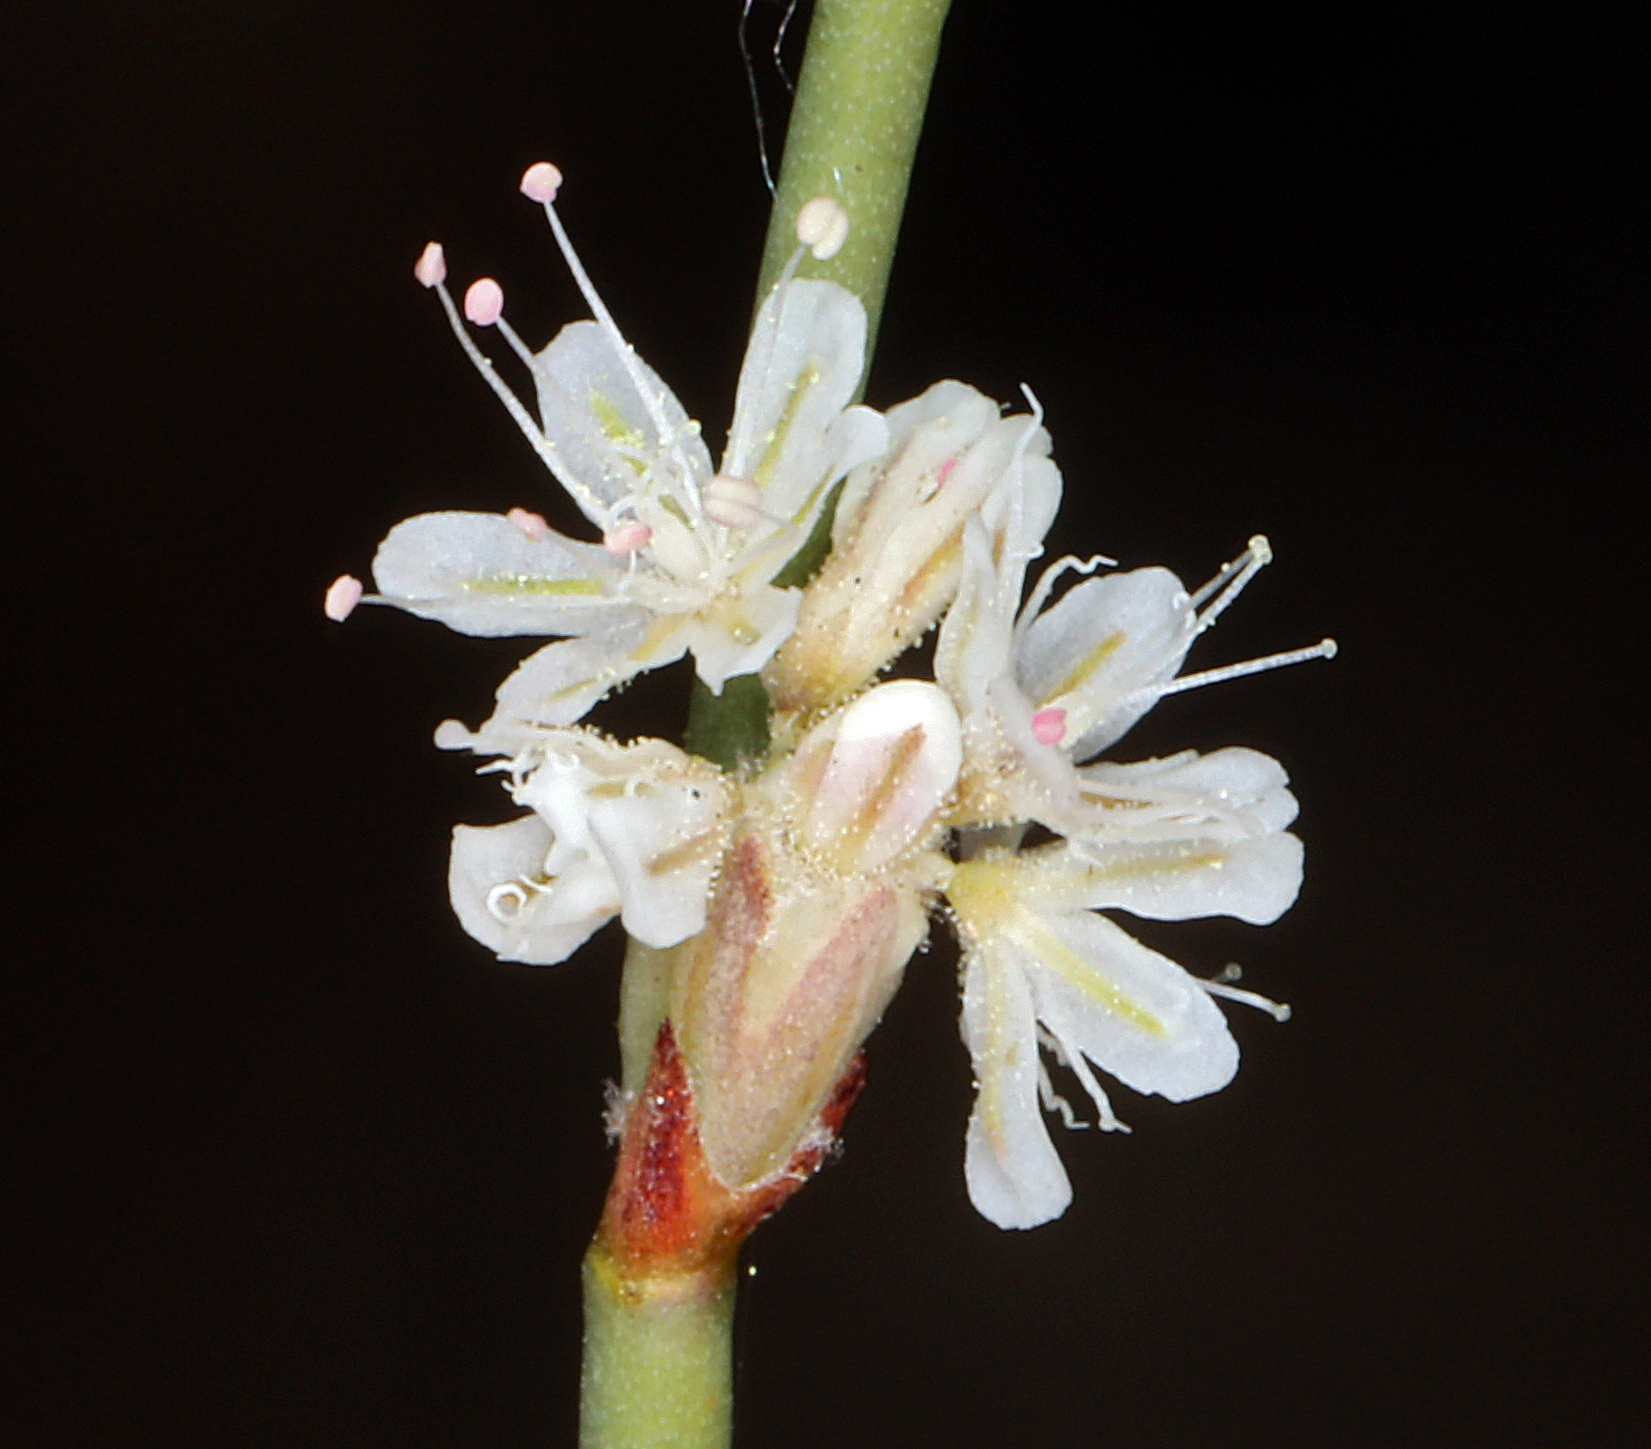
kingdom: Plantae
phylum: Tracheophyta
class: Magnoliopsida
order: Caryophyllales
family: Polygonaceae
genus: Eriogonum
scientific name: Eriogonum baileyi
